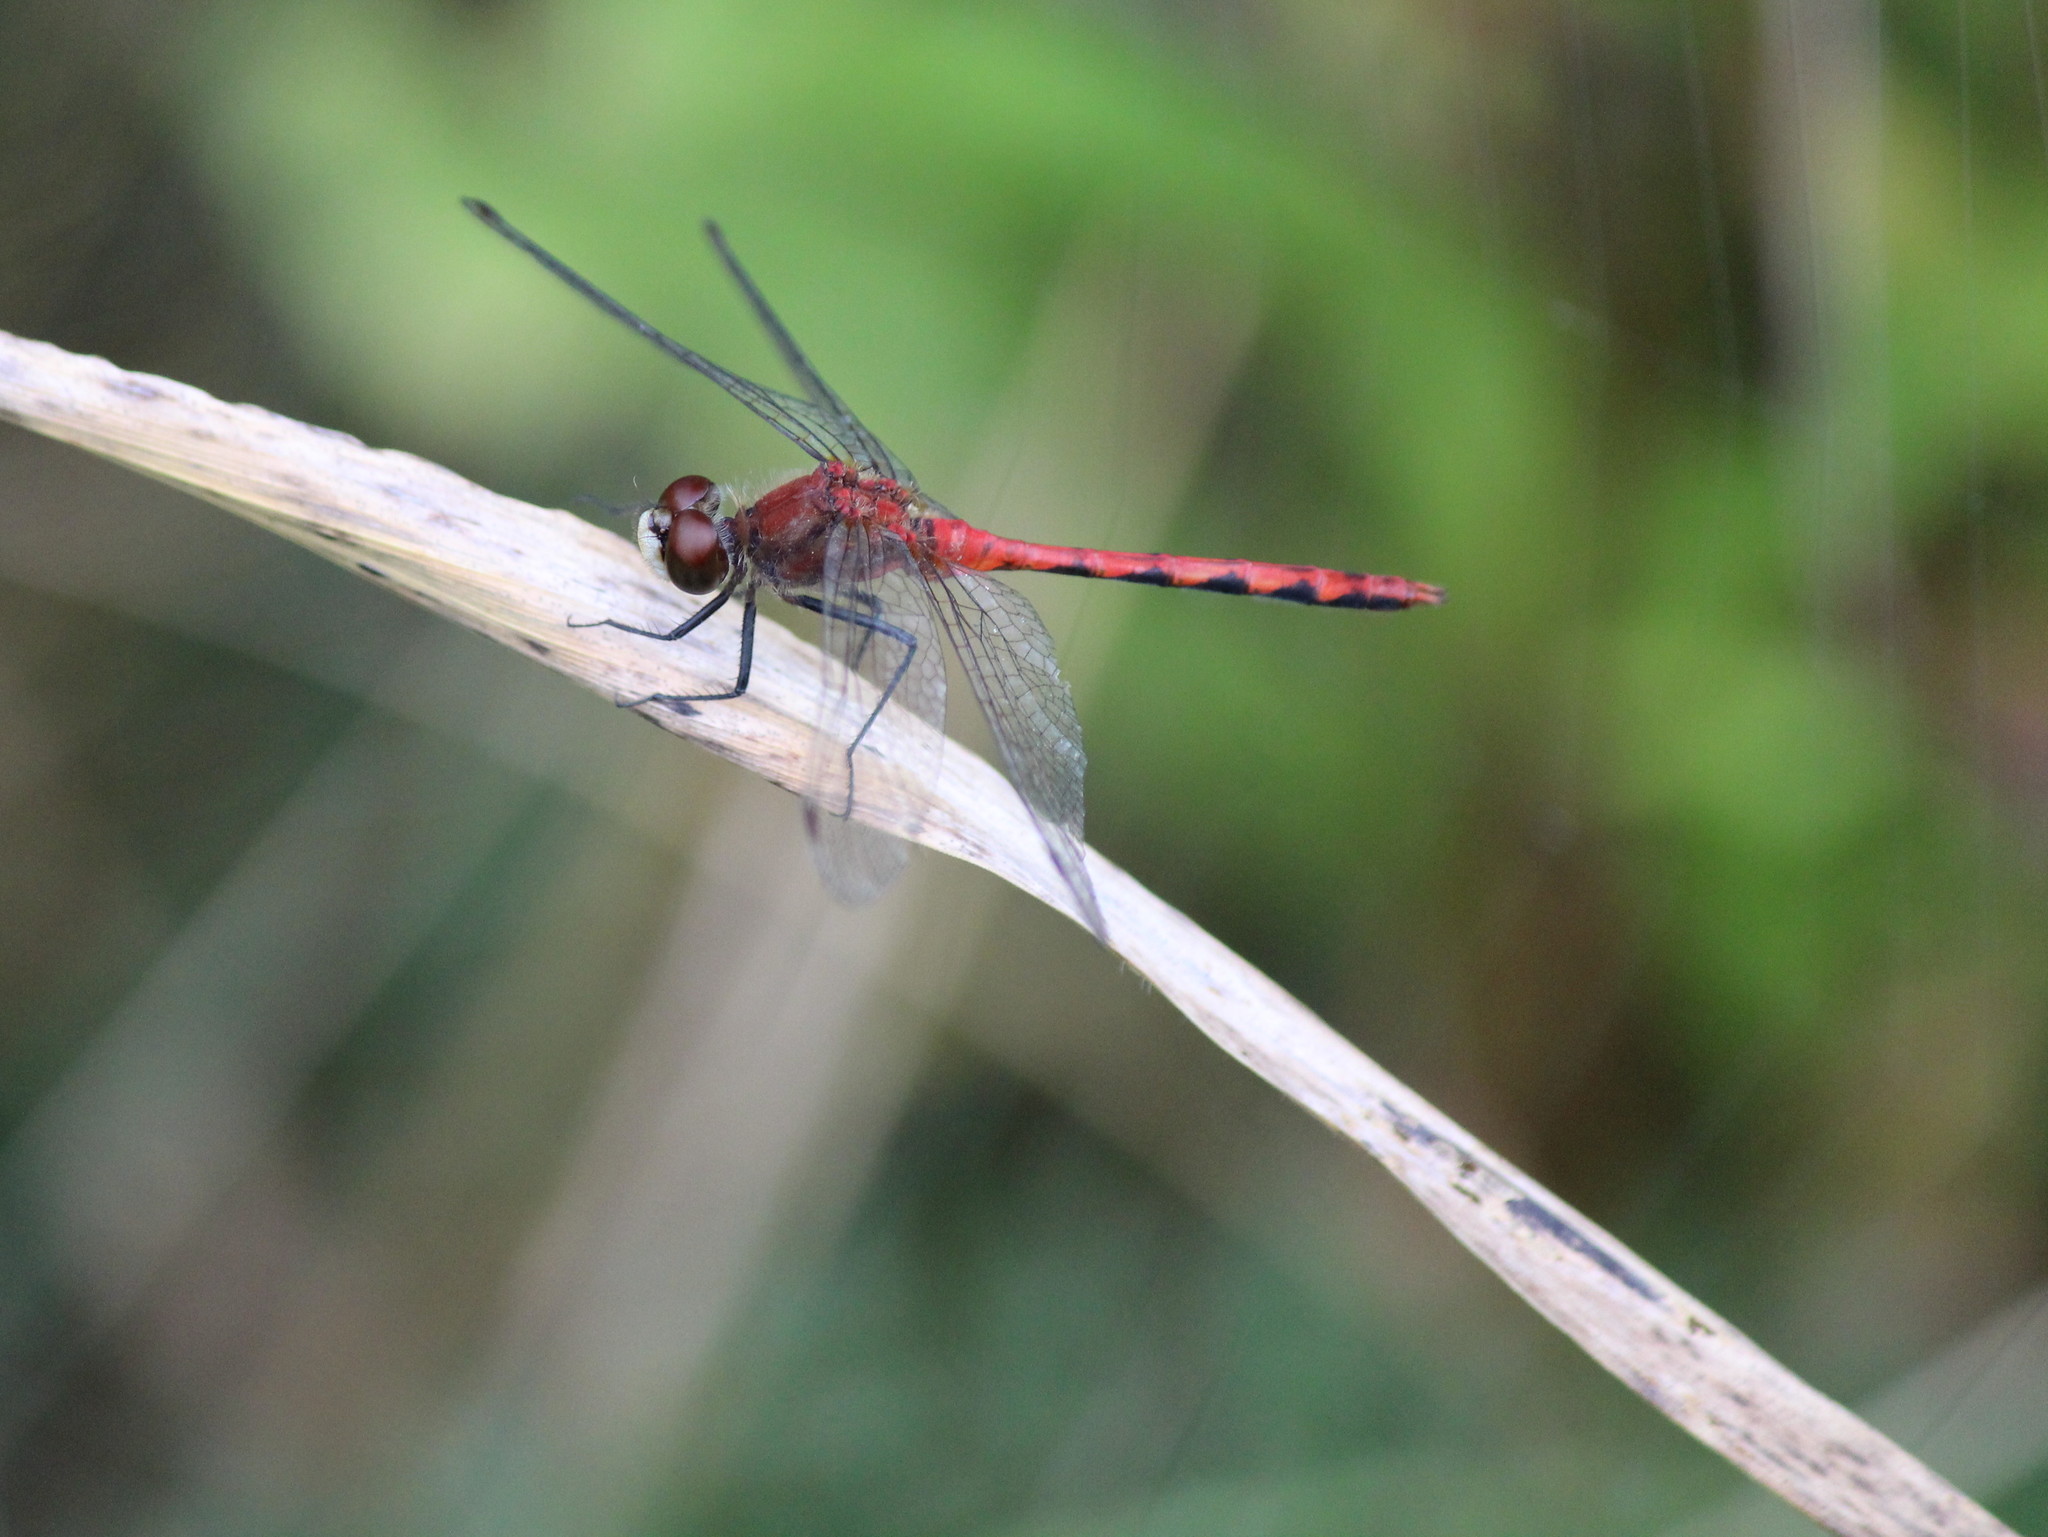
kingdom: Animalia
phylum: Arthropoda
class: Insecta
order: Odonata
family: Libellulidae
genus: Sympetrum
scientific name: Sympetrum obtrusum
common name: White-faced meadowhawk
